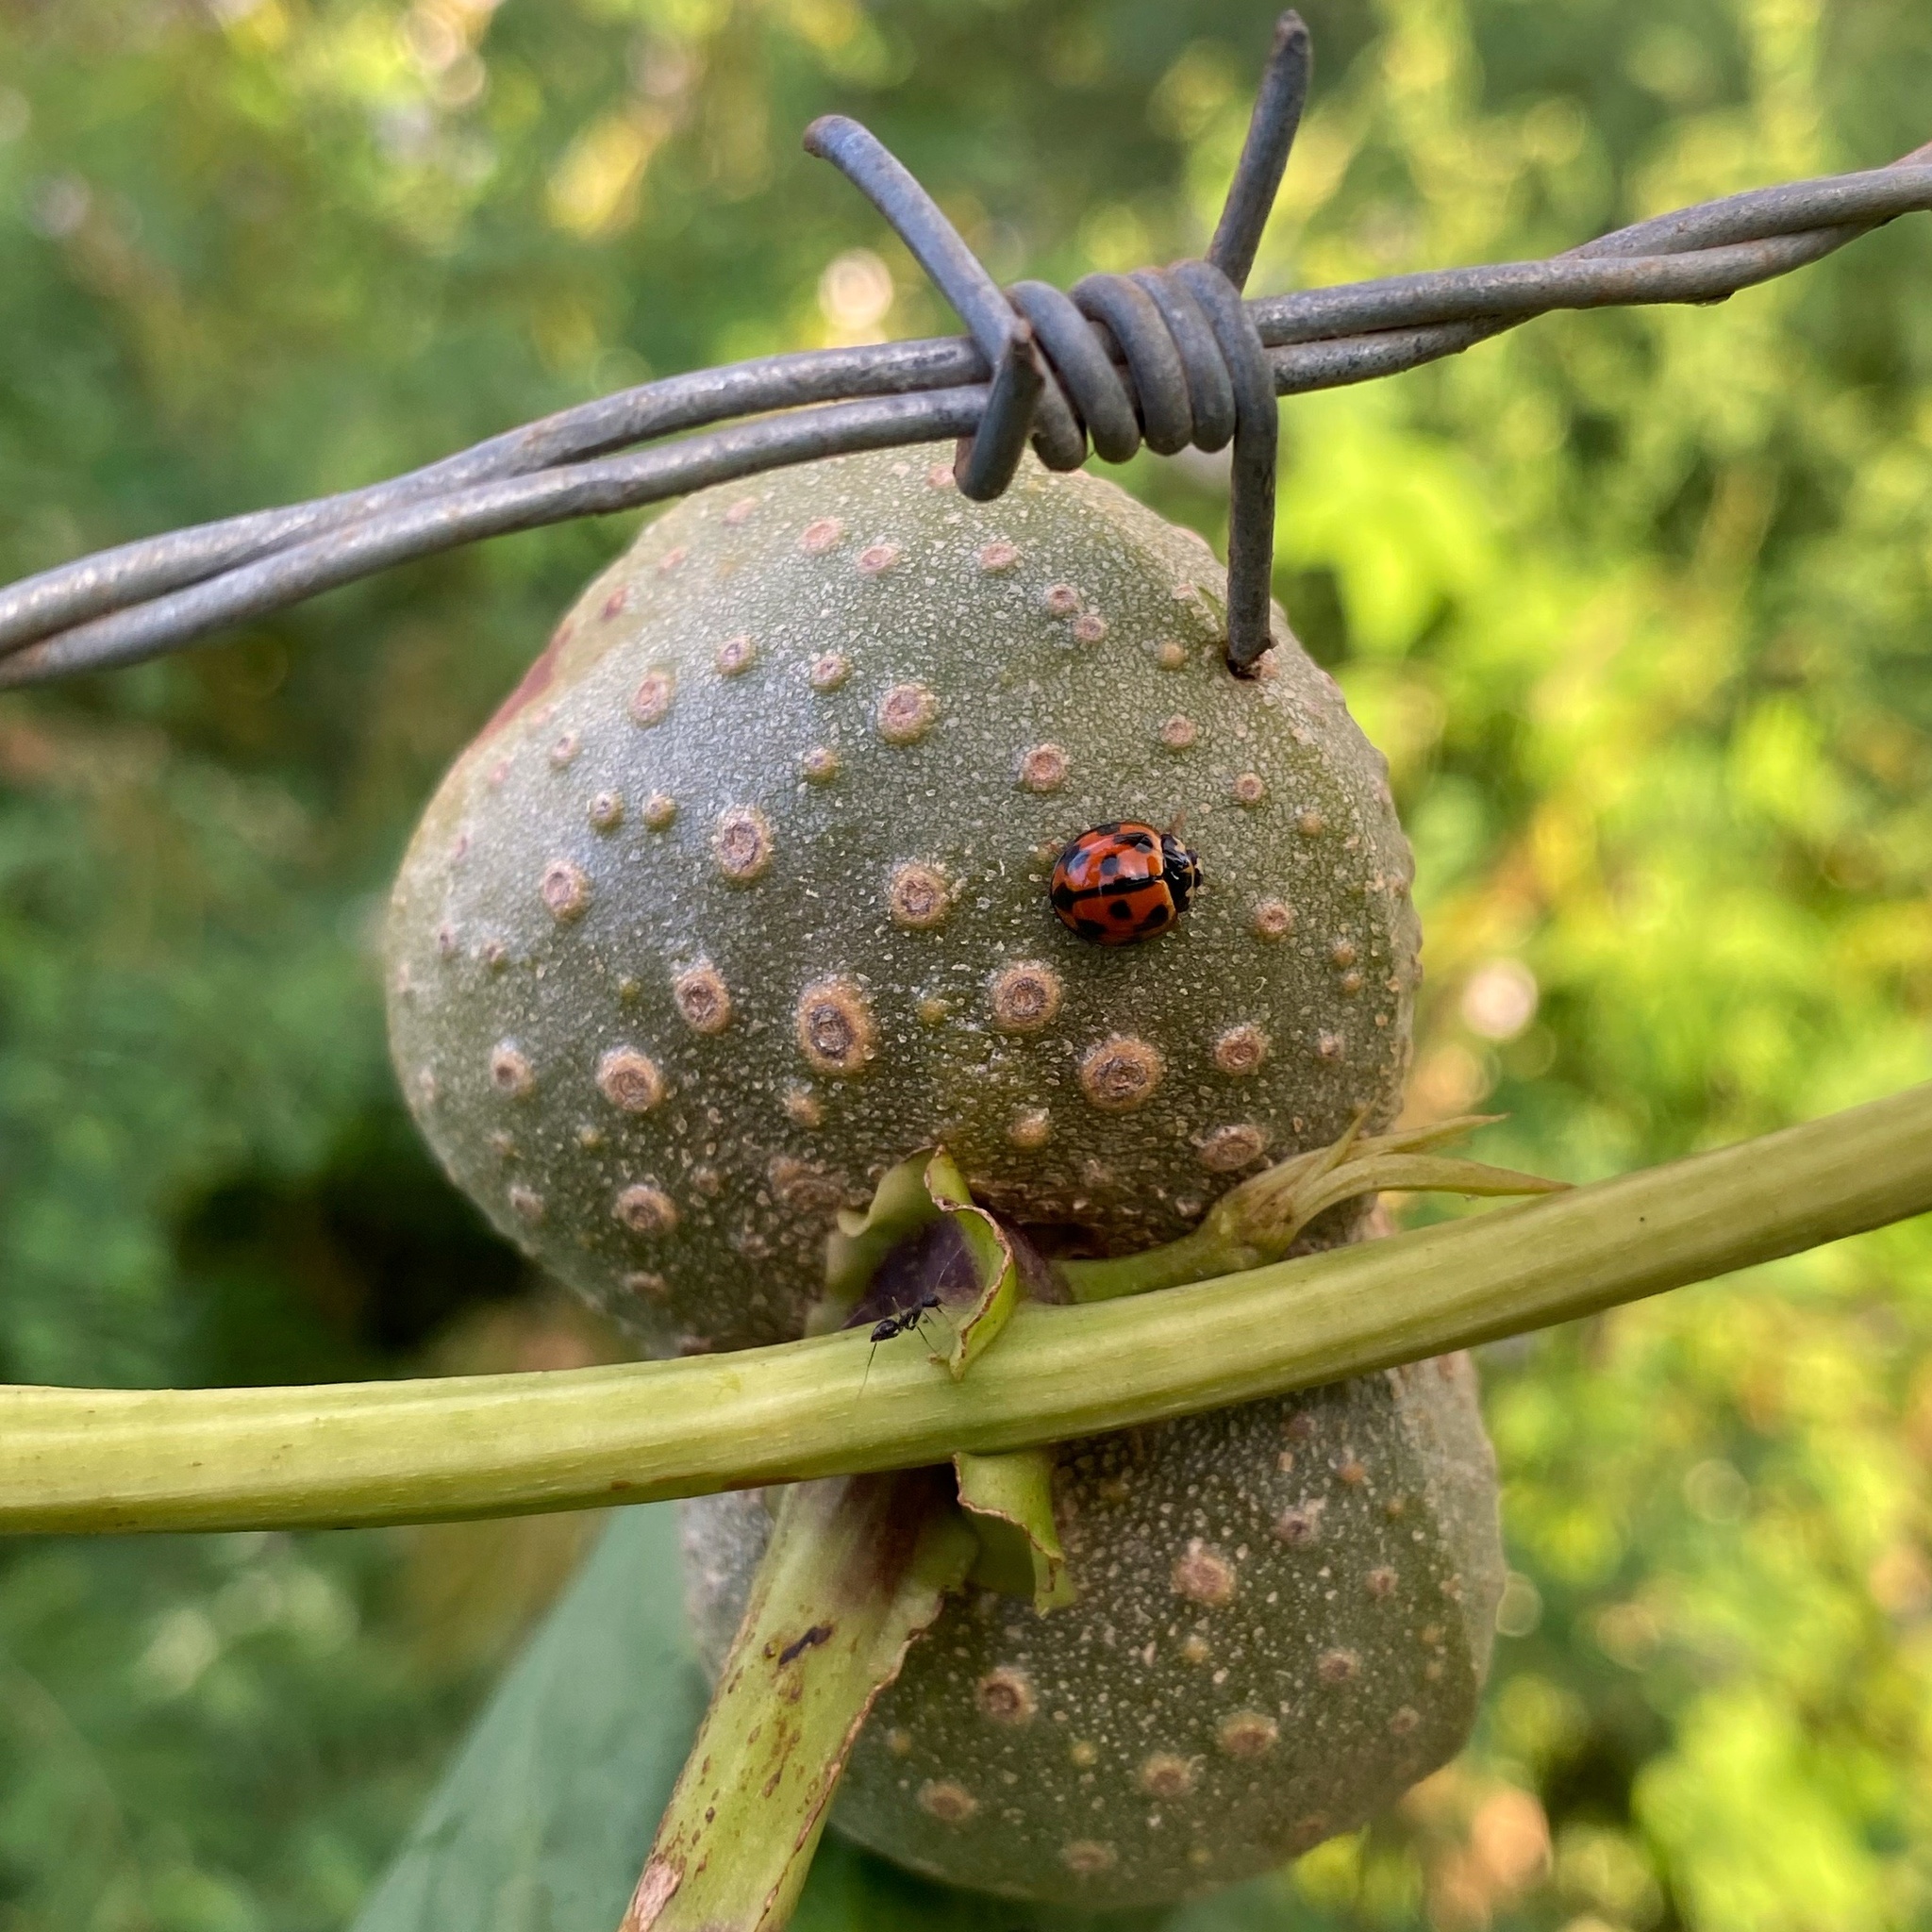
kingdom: Animalia
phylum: Arthropoda
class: Insecta
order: Coleoptera
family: Coccinellidae
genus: Coelophora
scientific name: Coelophora inaequalis
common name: Common australian lady beetle
